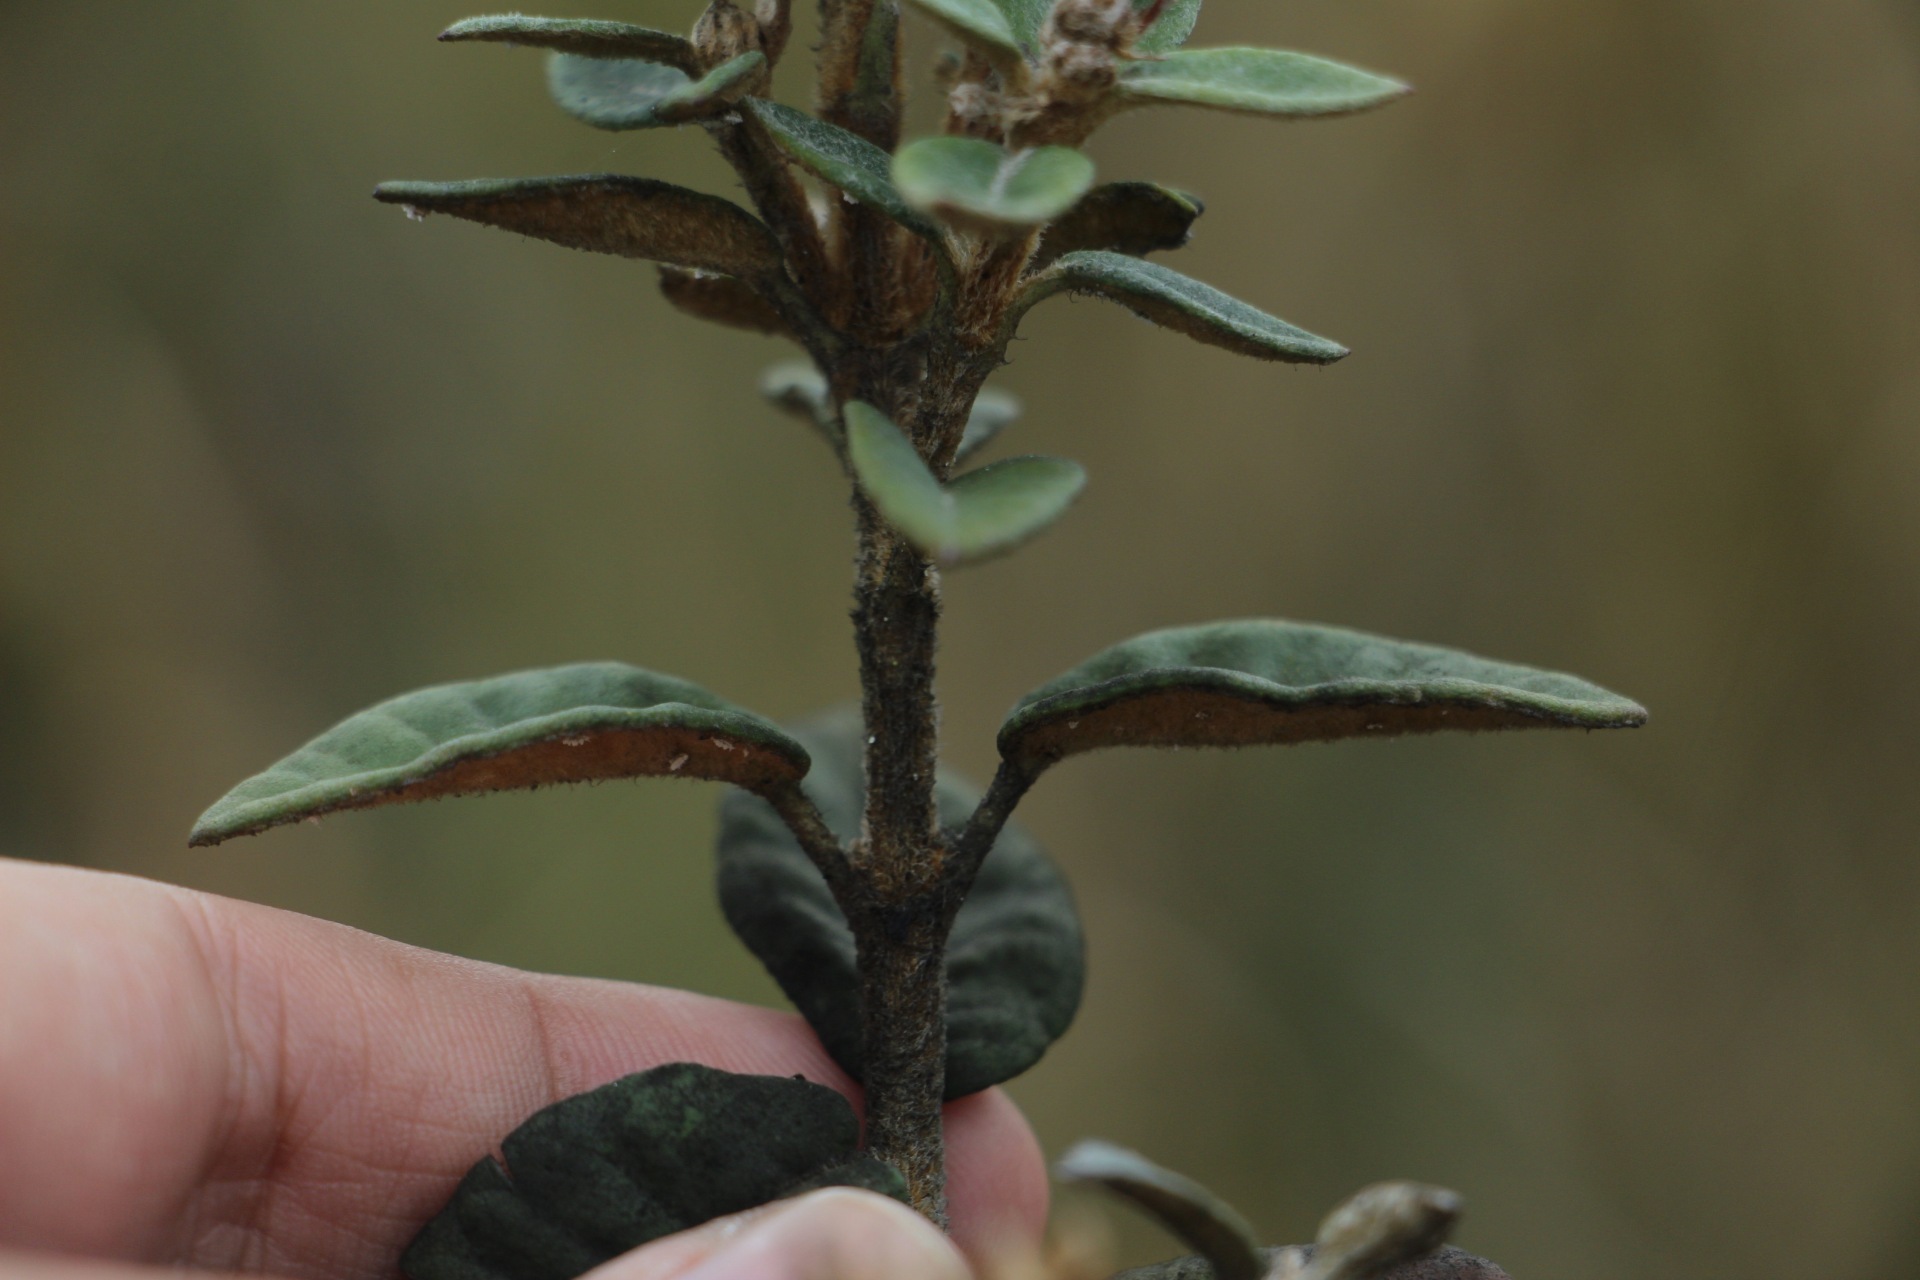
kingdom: Plantae
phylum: Tracheophyta
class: Magnoliopsida
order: Asterales
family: Asteraceae
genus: Ageratina
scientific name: Ageratina gynoxoides
